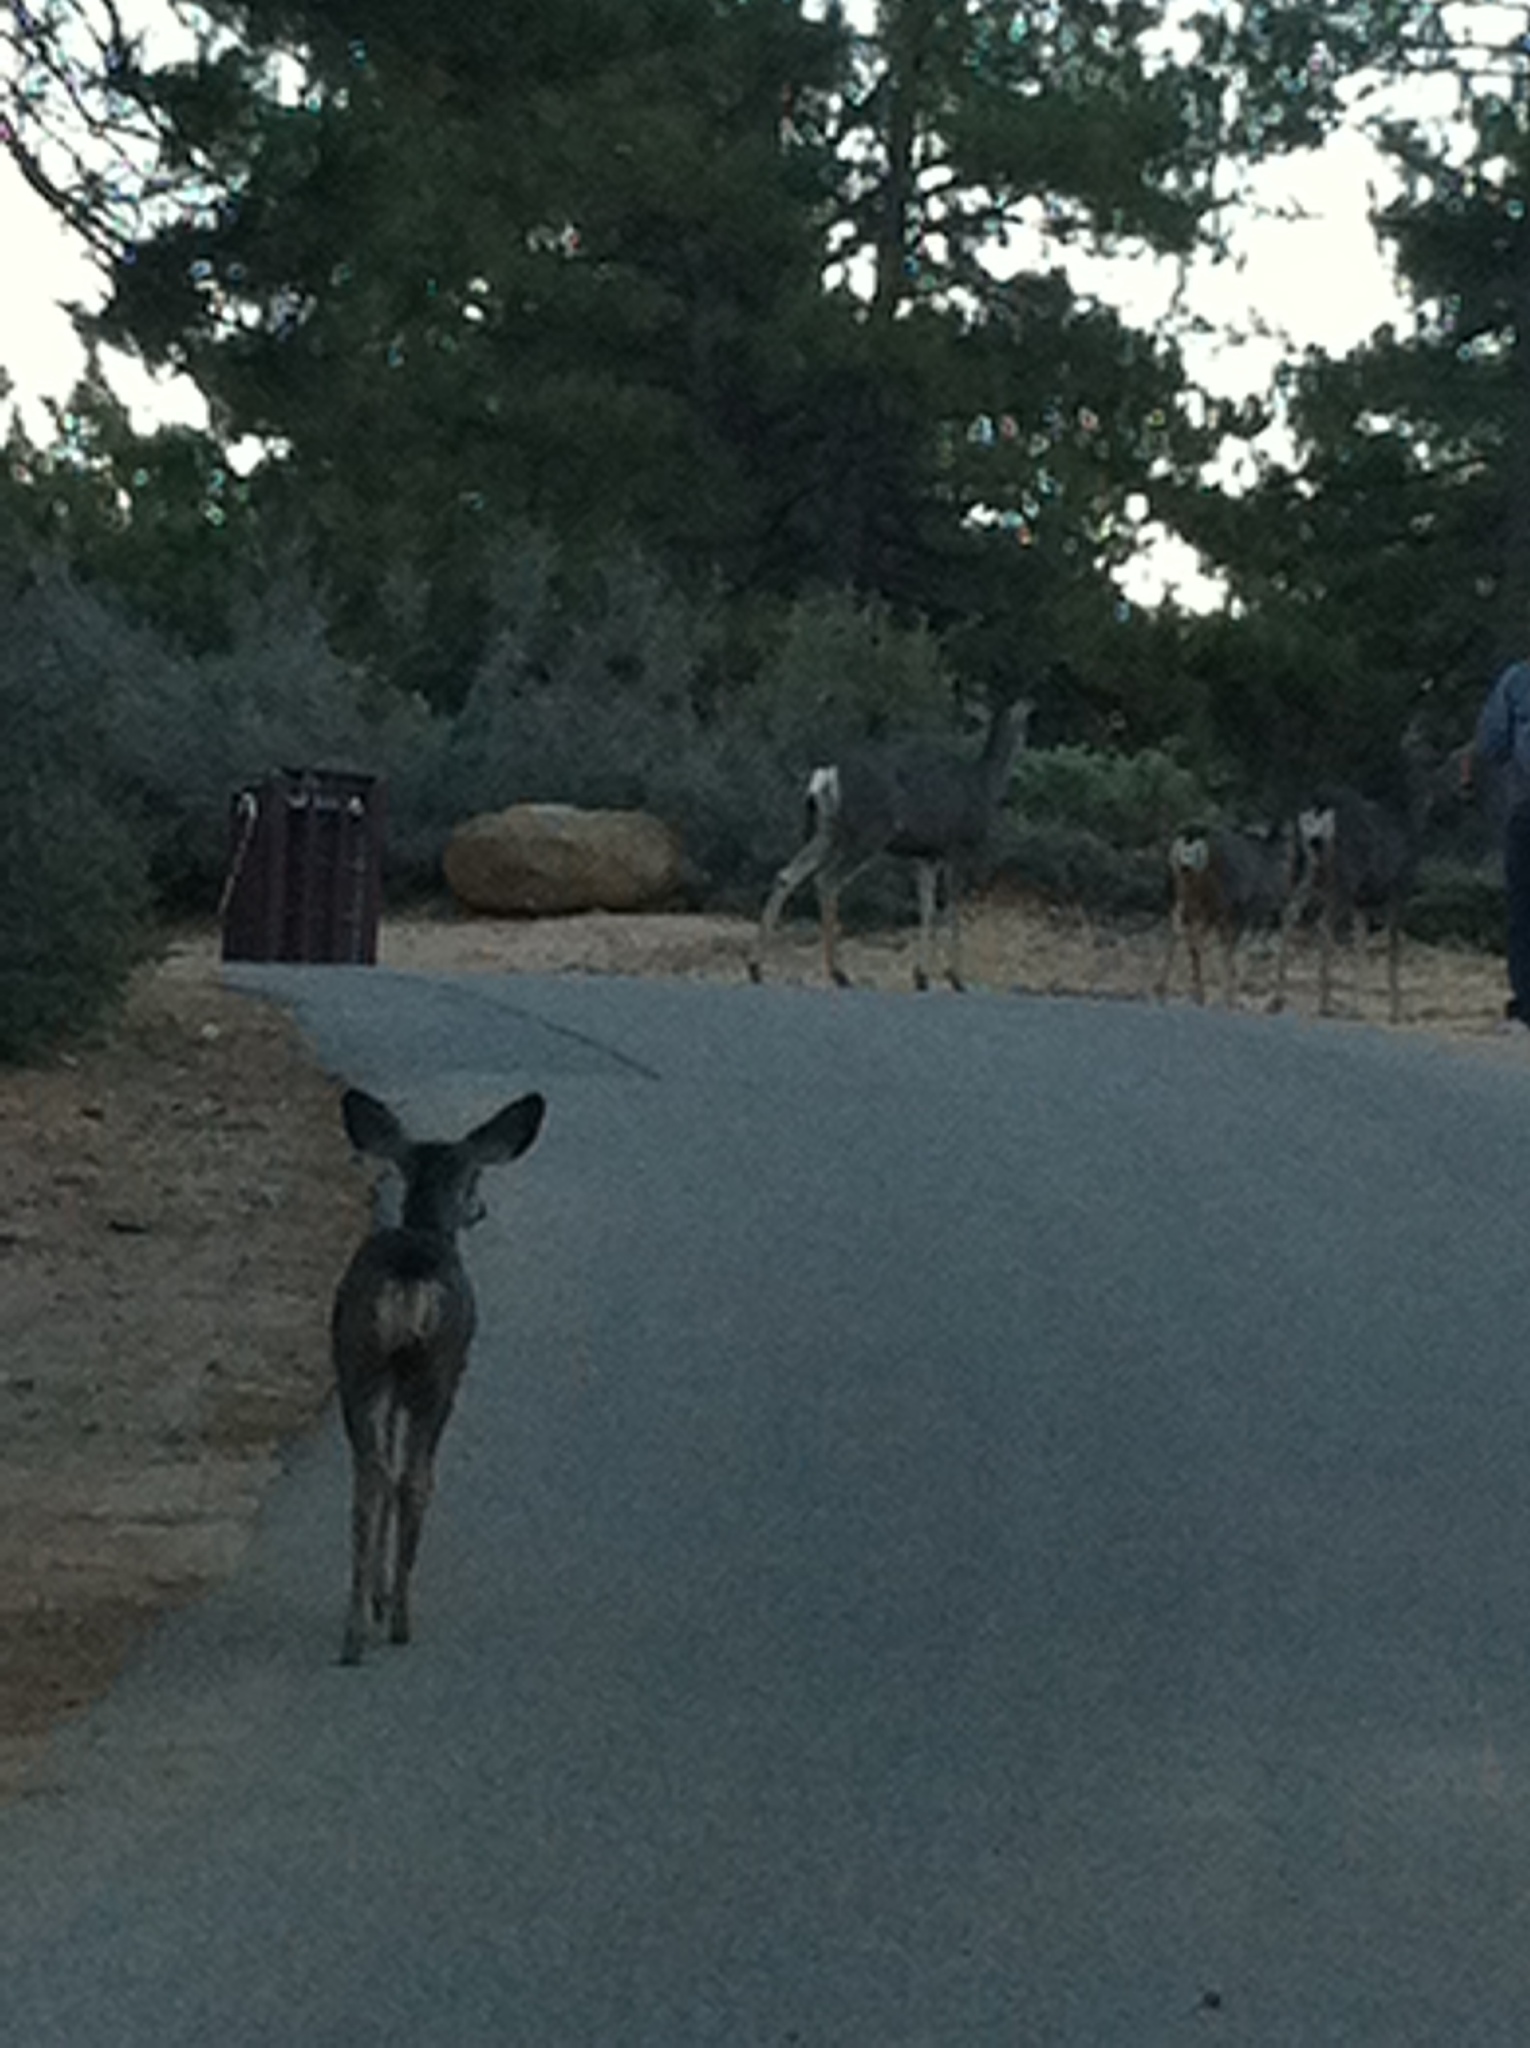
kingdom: Animalia
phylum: Chordata
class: Mammalia
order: Artiodactyla
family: Cervidae
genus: Odocoileus
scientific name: Odocoileus hemionus
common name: Mule deer
